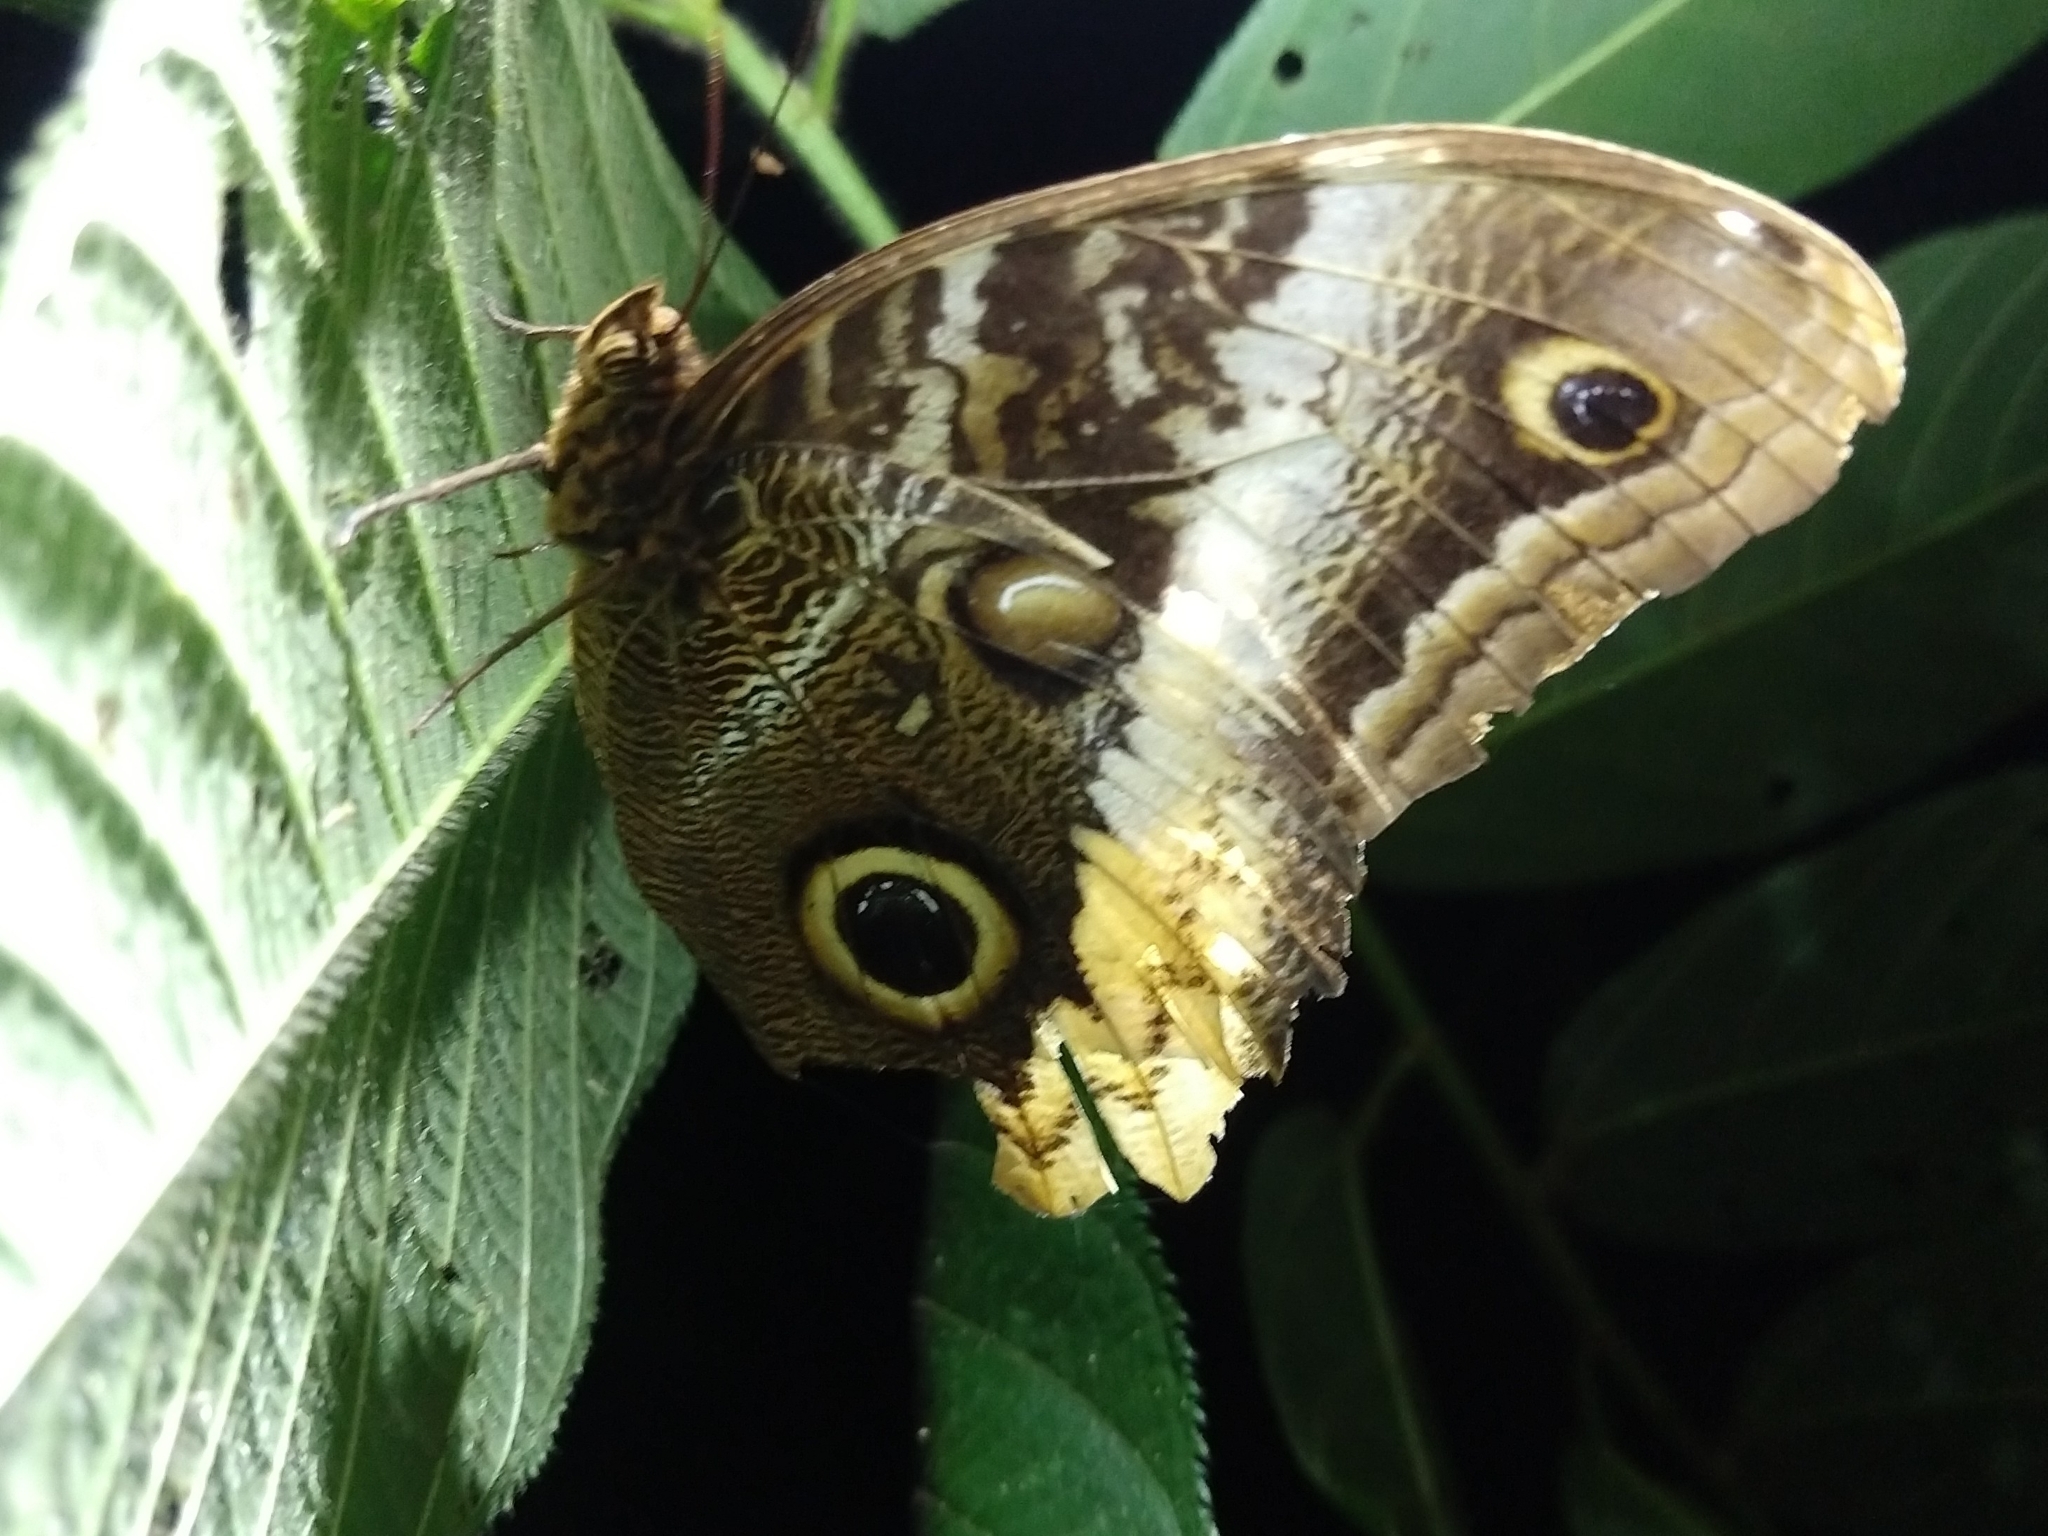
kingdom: Animalia
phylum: Arthropoda
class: Insecta
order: Lepidoptera
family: Nymphalidae
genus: Caligo
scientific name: Caligo atreus
